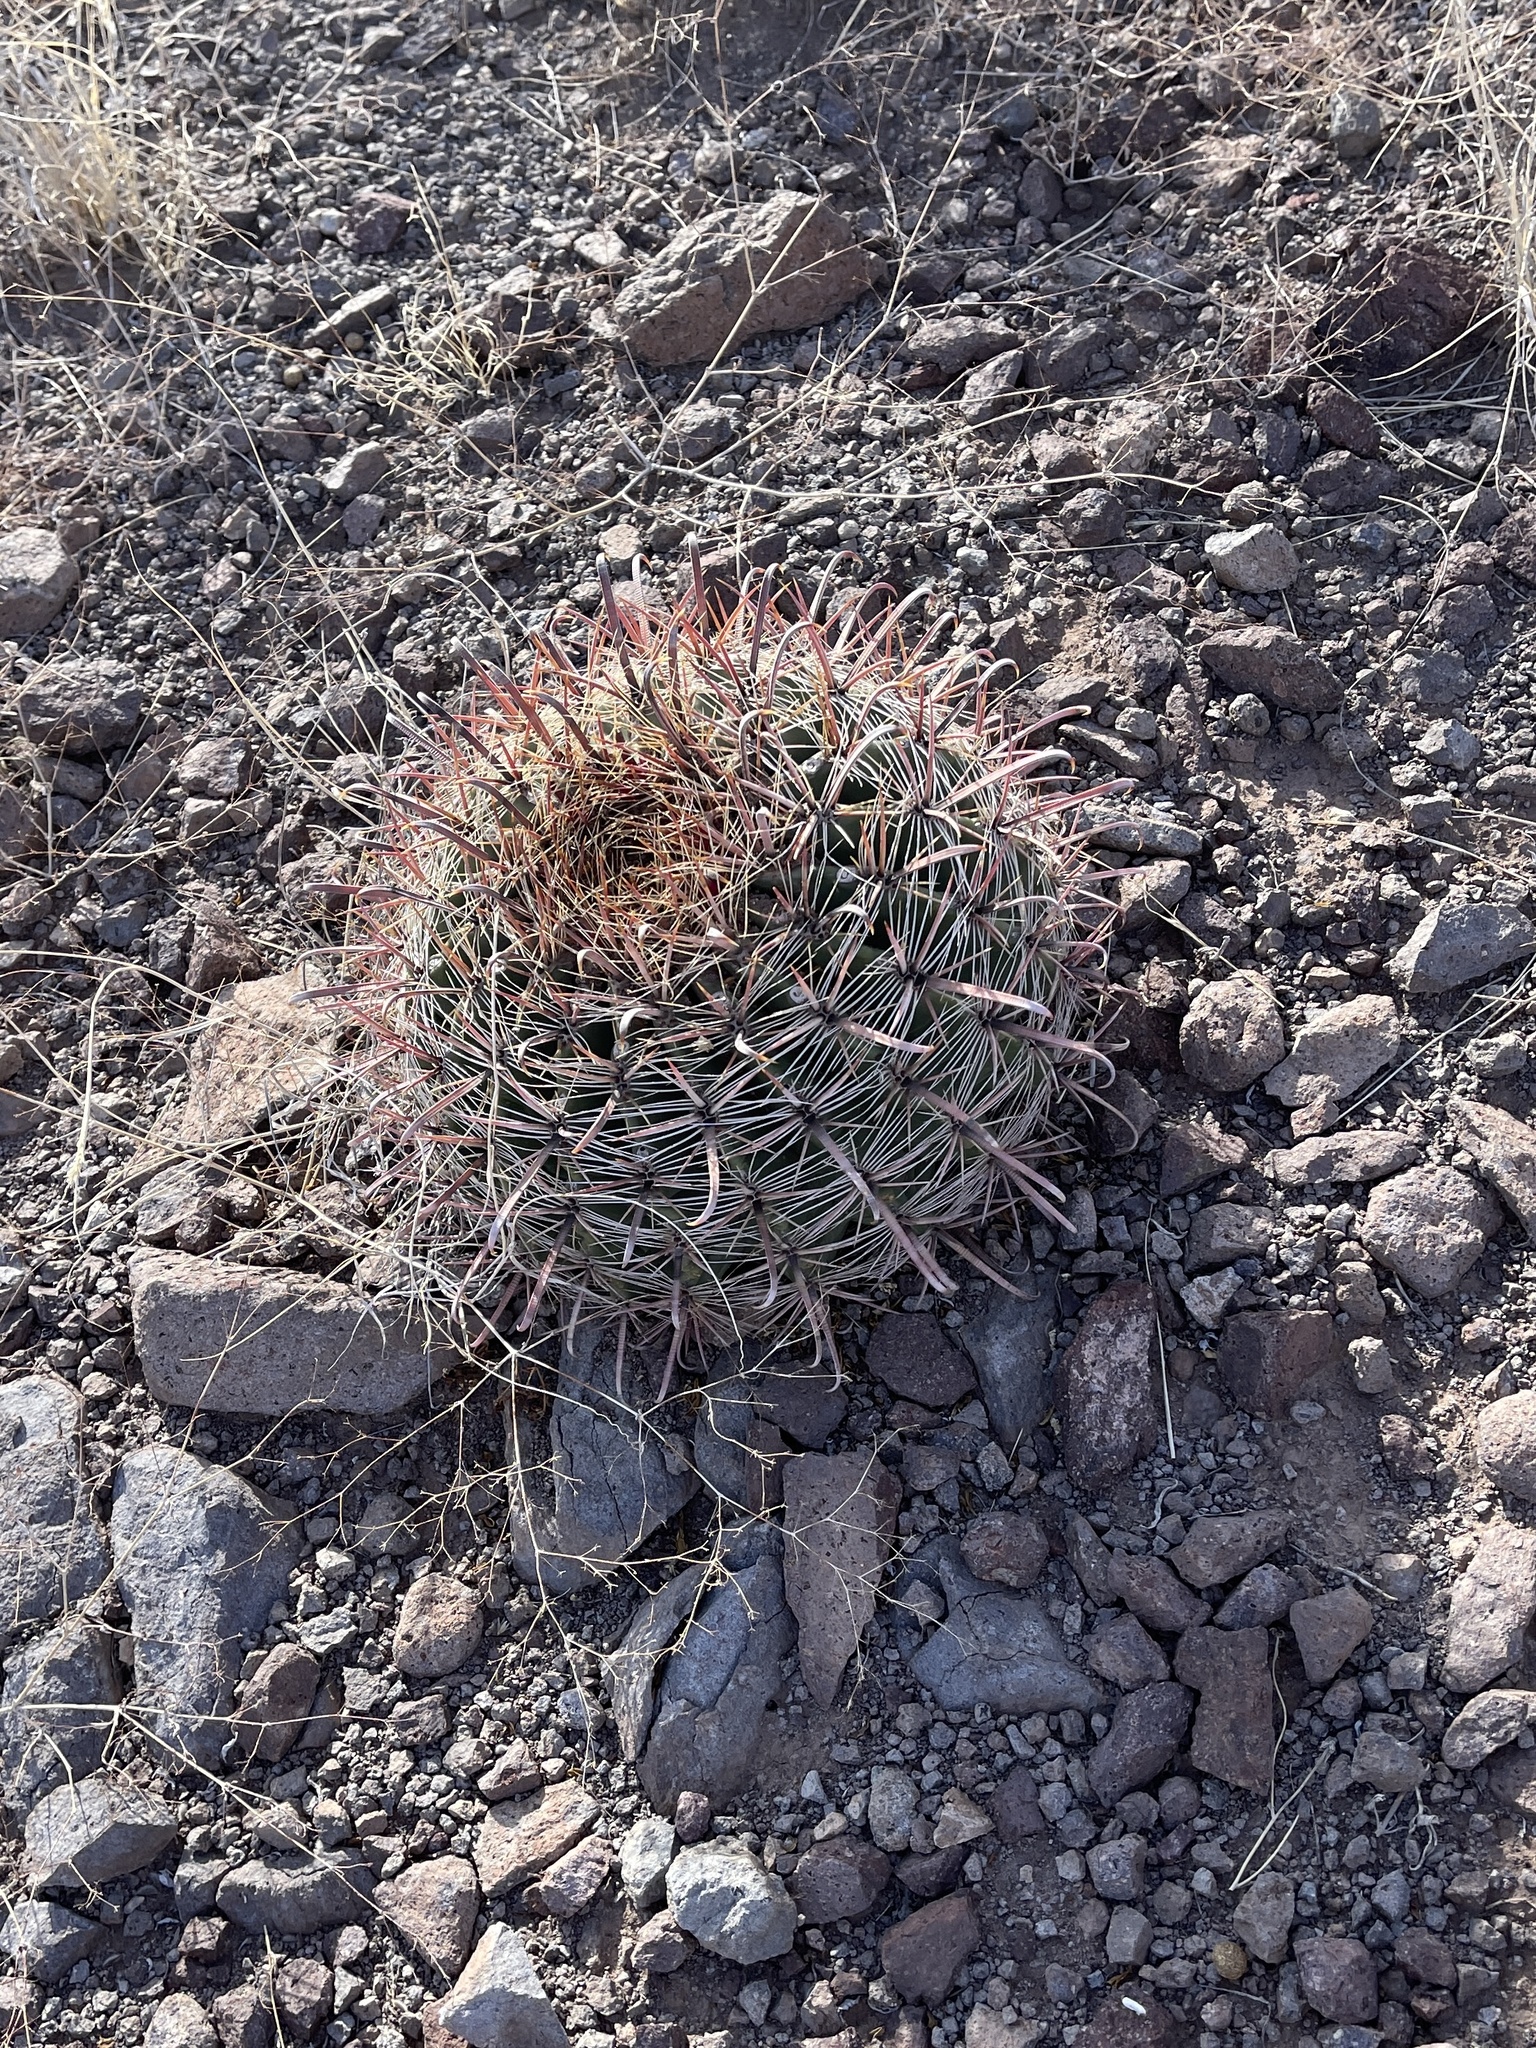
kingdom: Plantae
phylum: Tracheophyta
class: Magnoliopsida
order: Caryophyllales
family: Cactaceae
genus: Ferocactus
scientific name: Ferocactus wislizeni
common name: Candy barrel cactus
